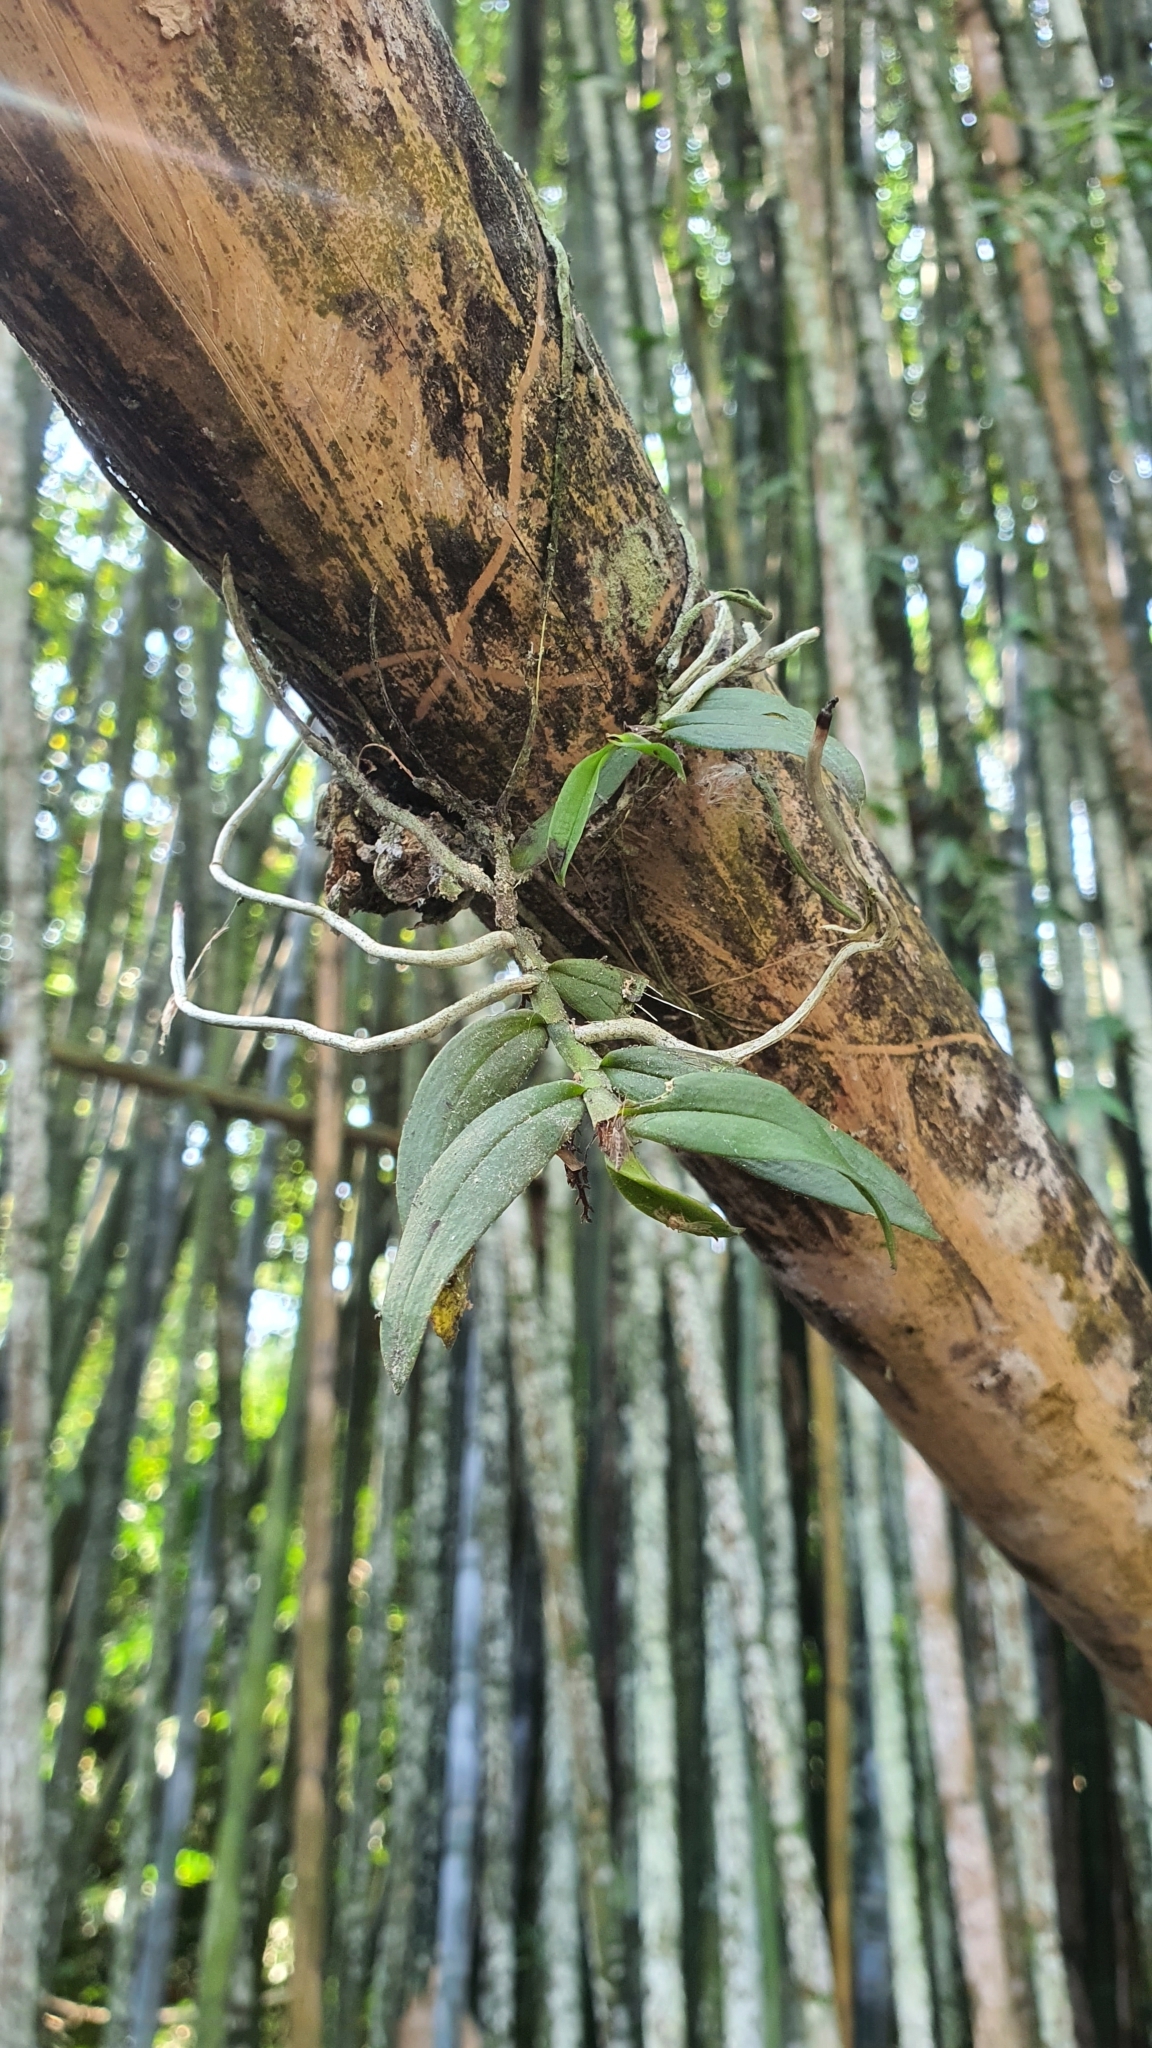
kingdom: Plantae
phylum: Tracheophyta
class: Liliopsida
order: Asparagales
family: Orchidaceae
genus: Campylocentrum
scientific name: Campylocentrum micranthum
